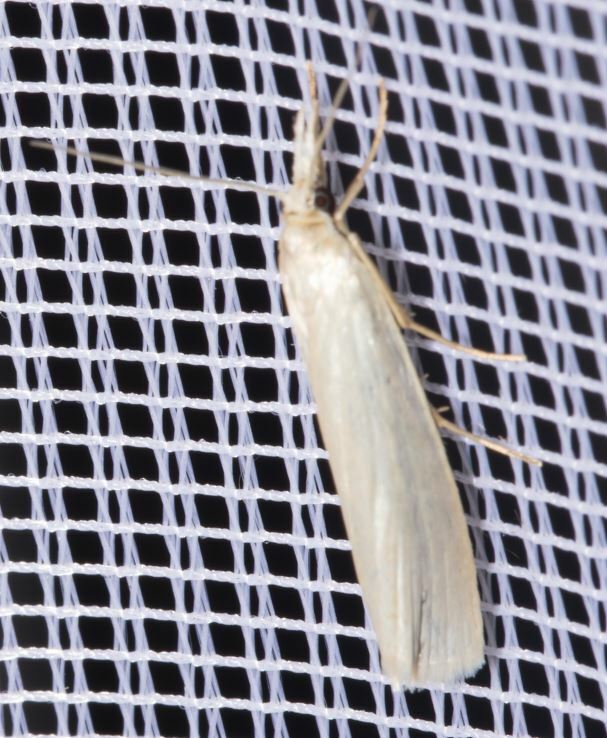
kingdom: Animalia
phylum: Arthropoda
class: Insecta
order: Lepidoptera
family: Crambidae
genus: Crambus
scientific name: Crambus perlellus
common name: Yellow satin veneer
